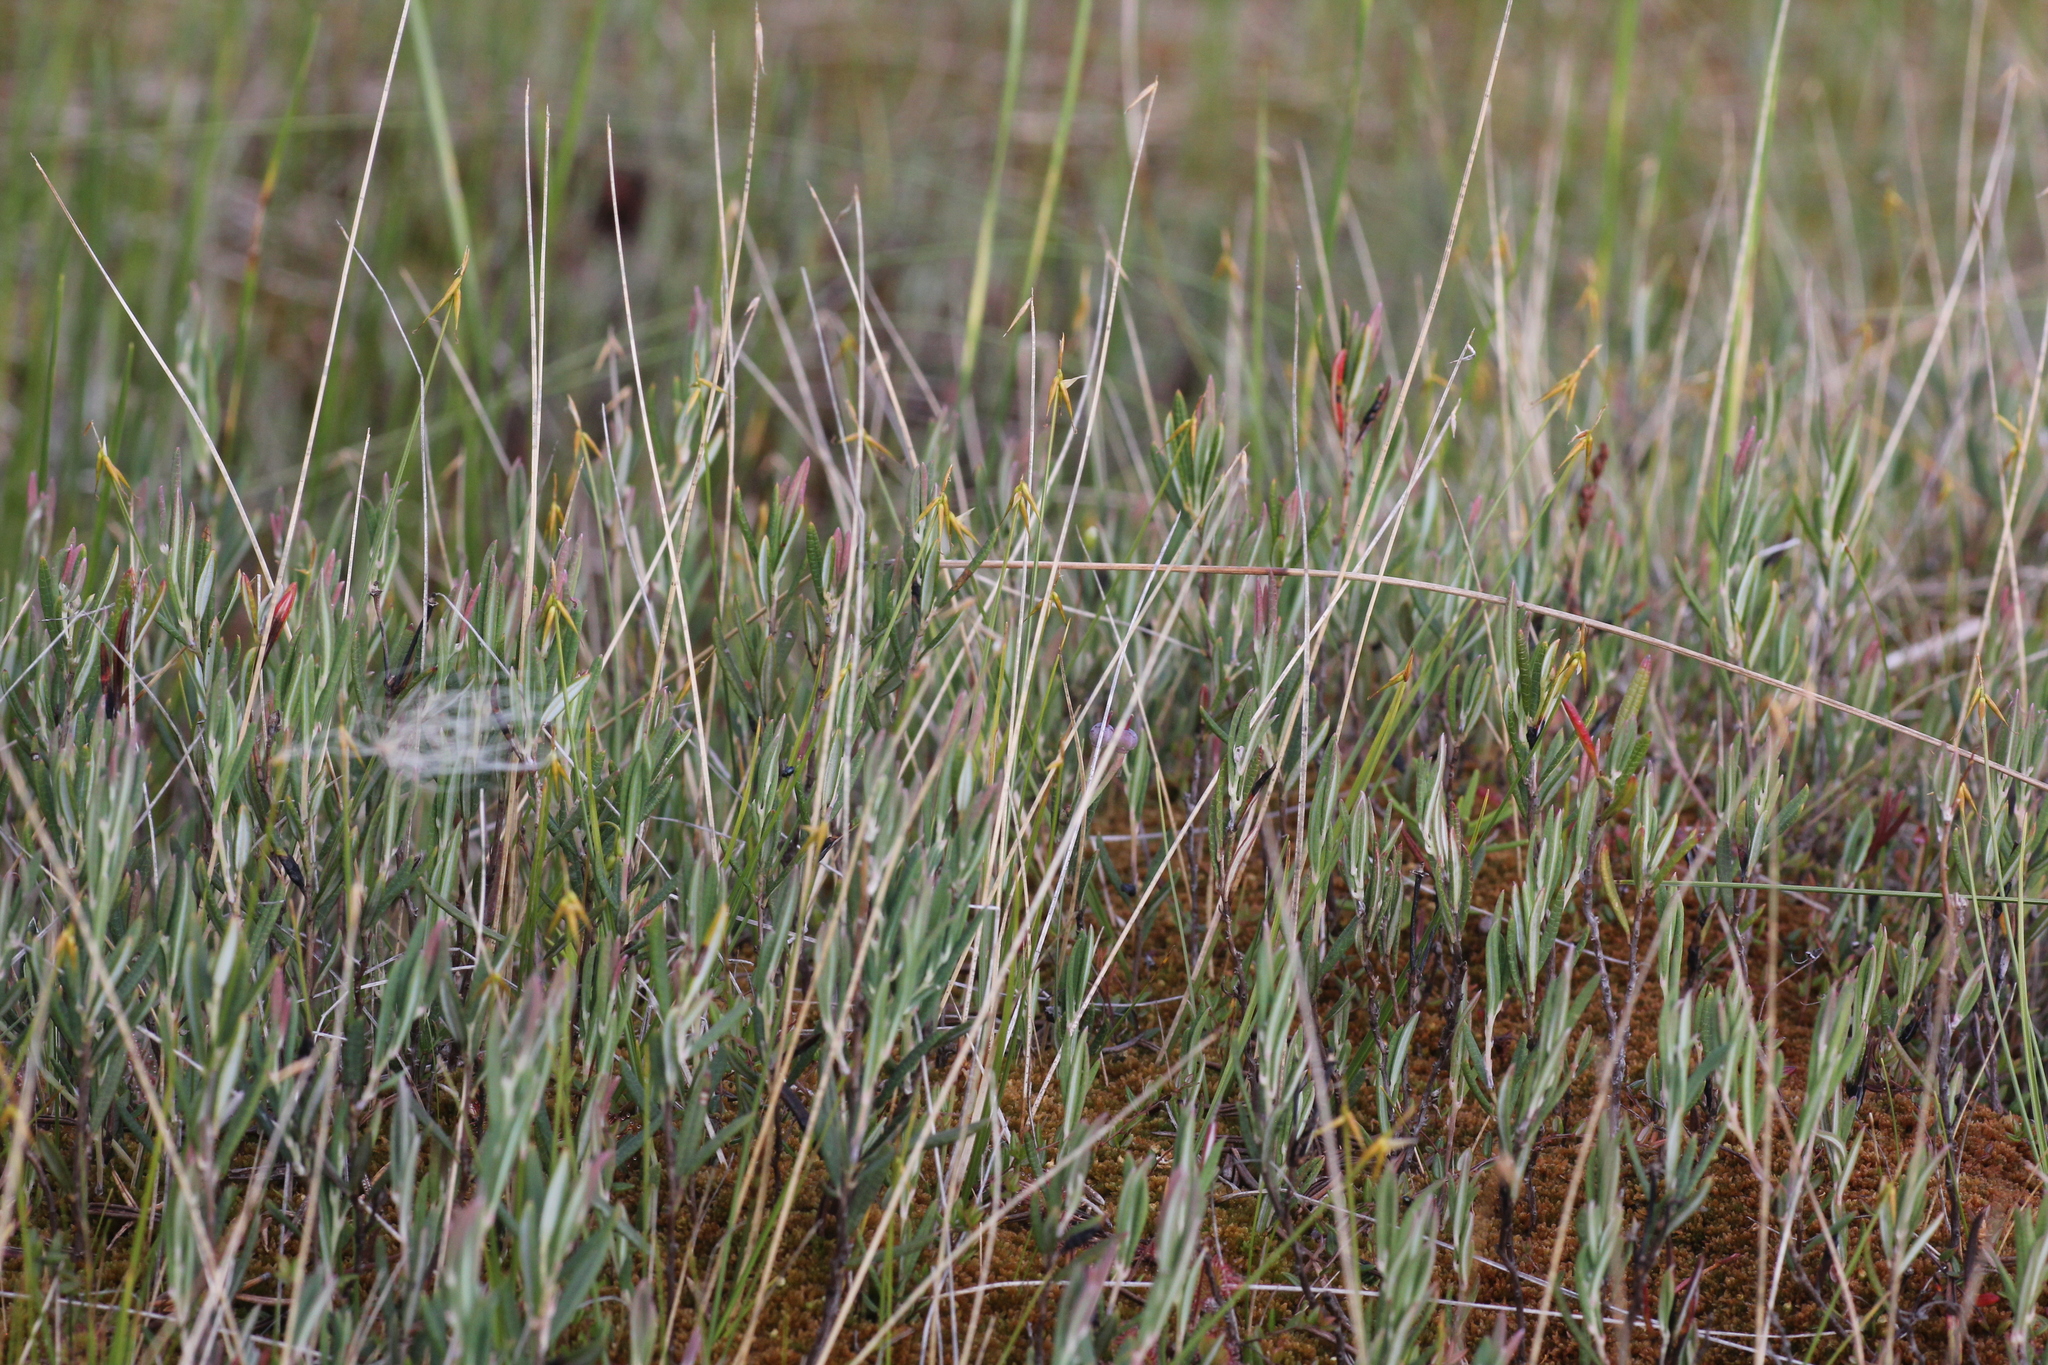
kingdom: Plantae
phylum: Tracheophyta
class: Liliopsida
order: Poales
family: Cyperaceae
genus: Carex
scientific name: Carex pauciflora
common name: Few-flowered sedge
